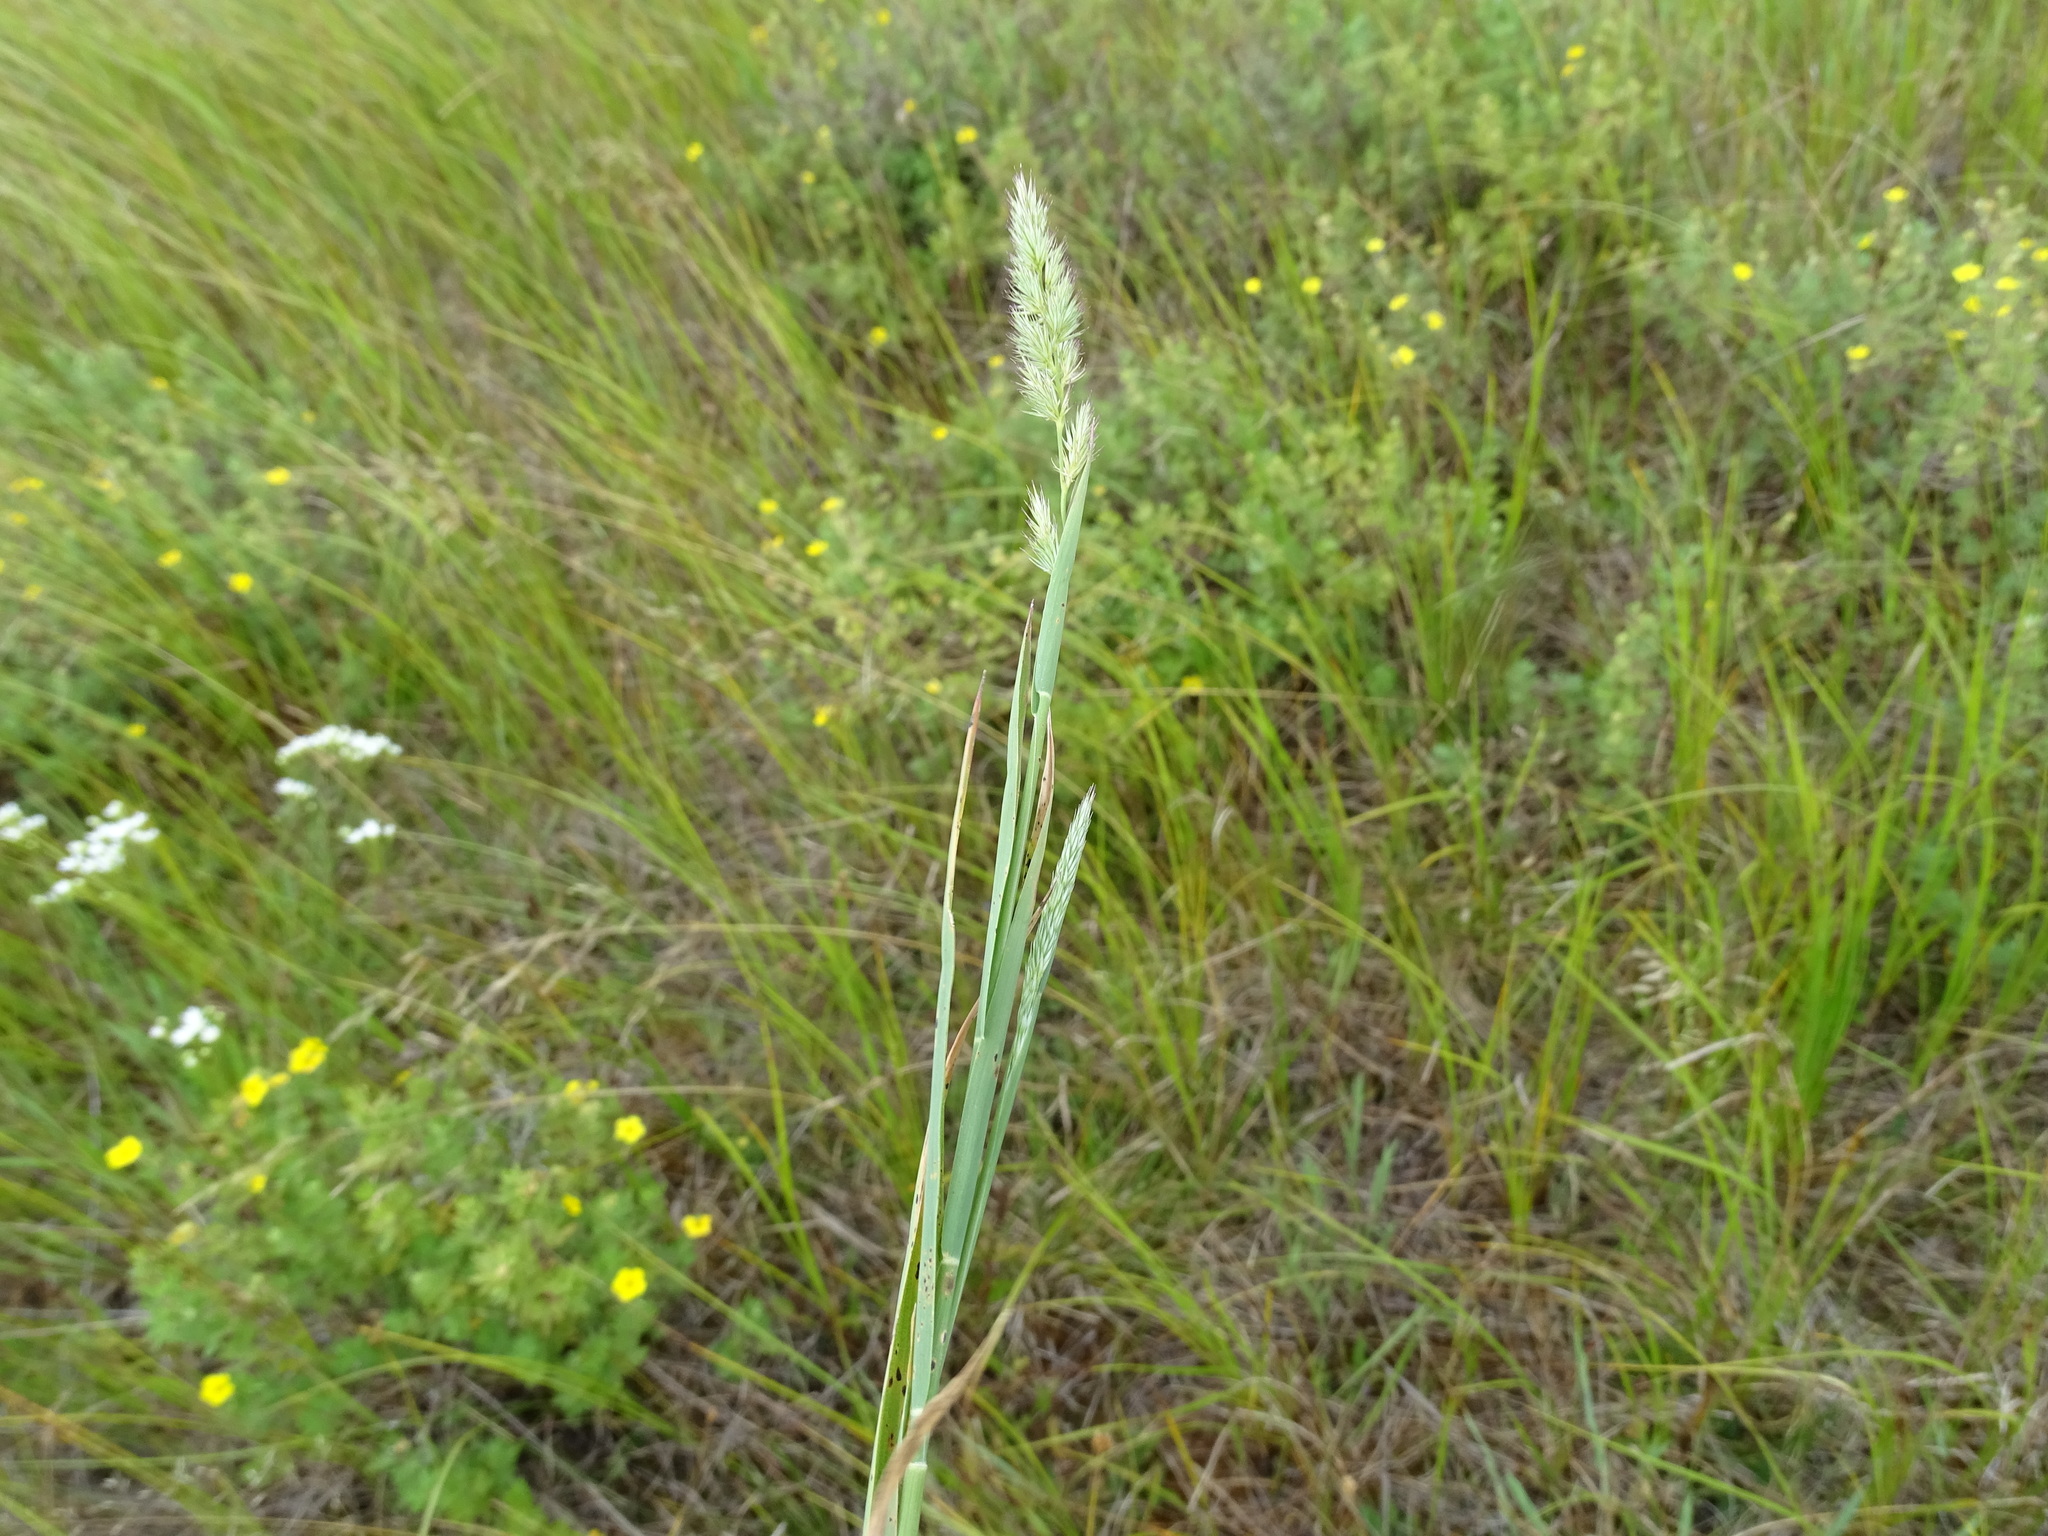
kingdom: Plantae
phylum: Tracheophyta
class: Liliopsida
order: Poales
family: Poaceae
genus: Muhlenbergia
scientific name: Muhlenbergia glomerata
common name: Bog muhly
